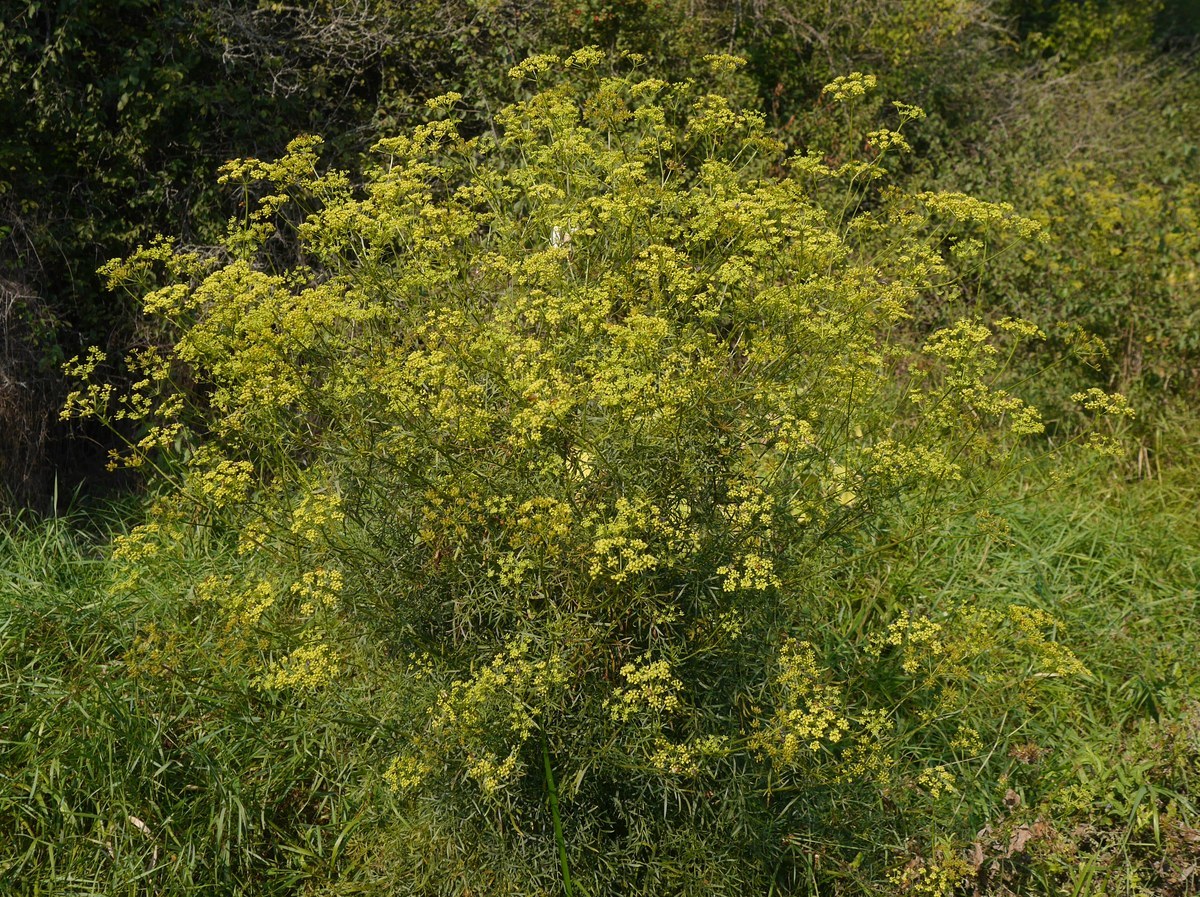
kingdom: Plantae
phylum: Tracheophyta
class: Magnoliopsida
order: Apiales
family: Apiaceae
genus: Peucedanum
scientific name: Peucedanum ruthenicum
